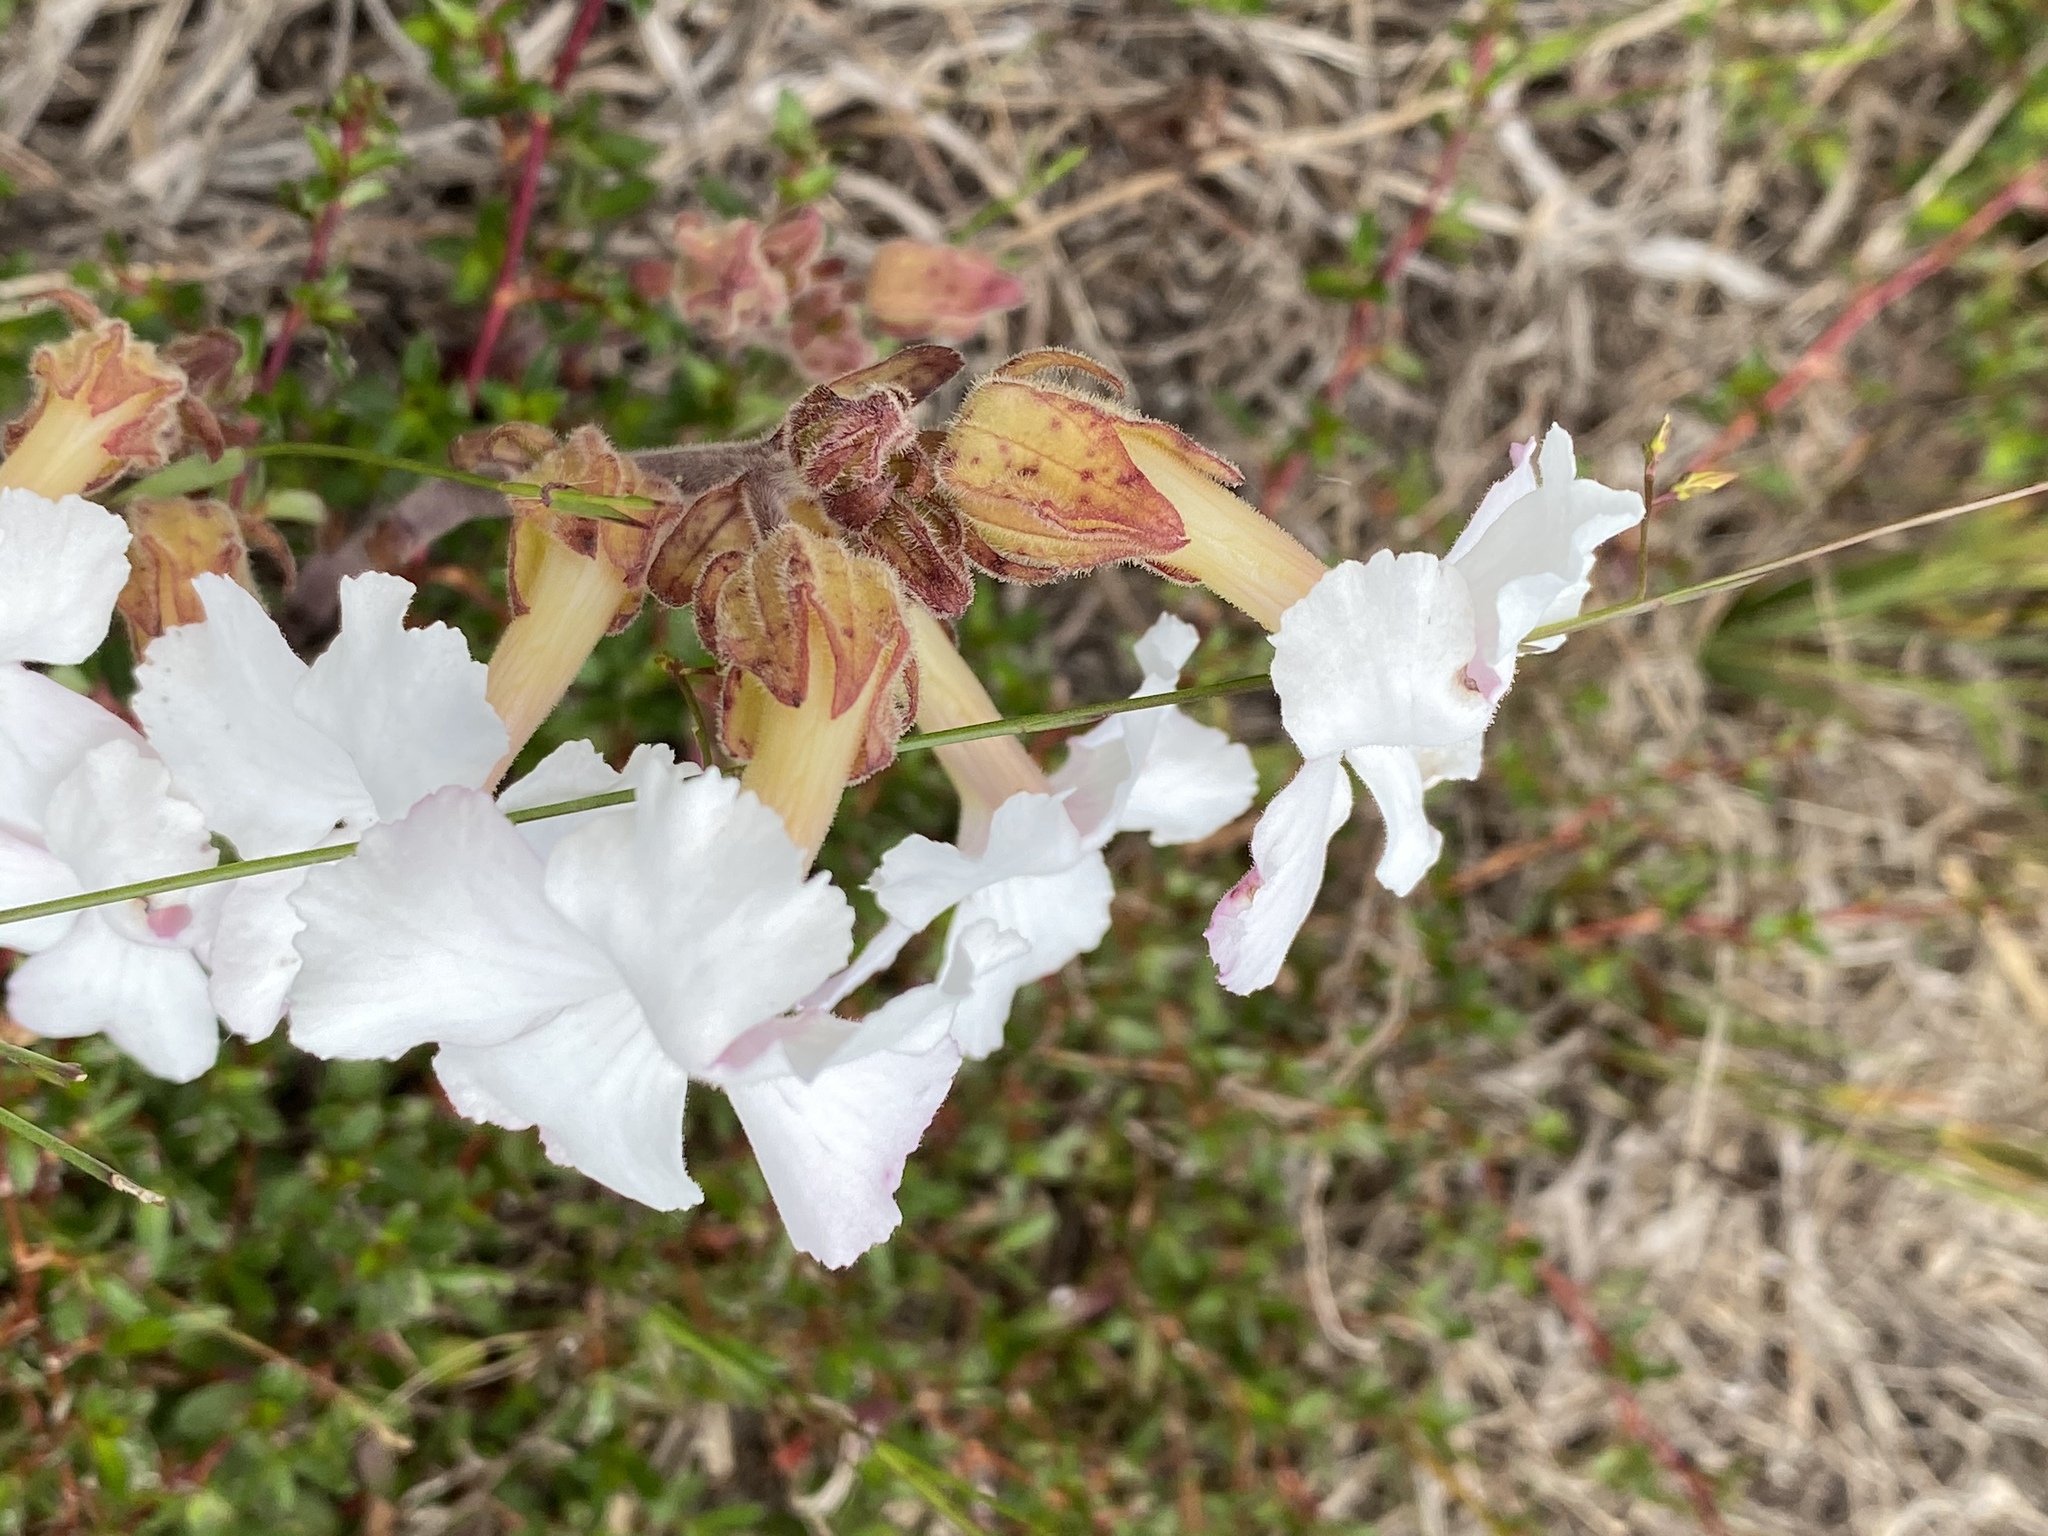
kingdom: Plantae
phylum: Tracheophyta
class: Magnoliopsida
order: Lamiales
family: Orobanchaceae
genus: Harveya
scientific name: Harveya capensis
